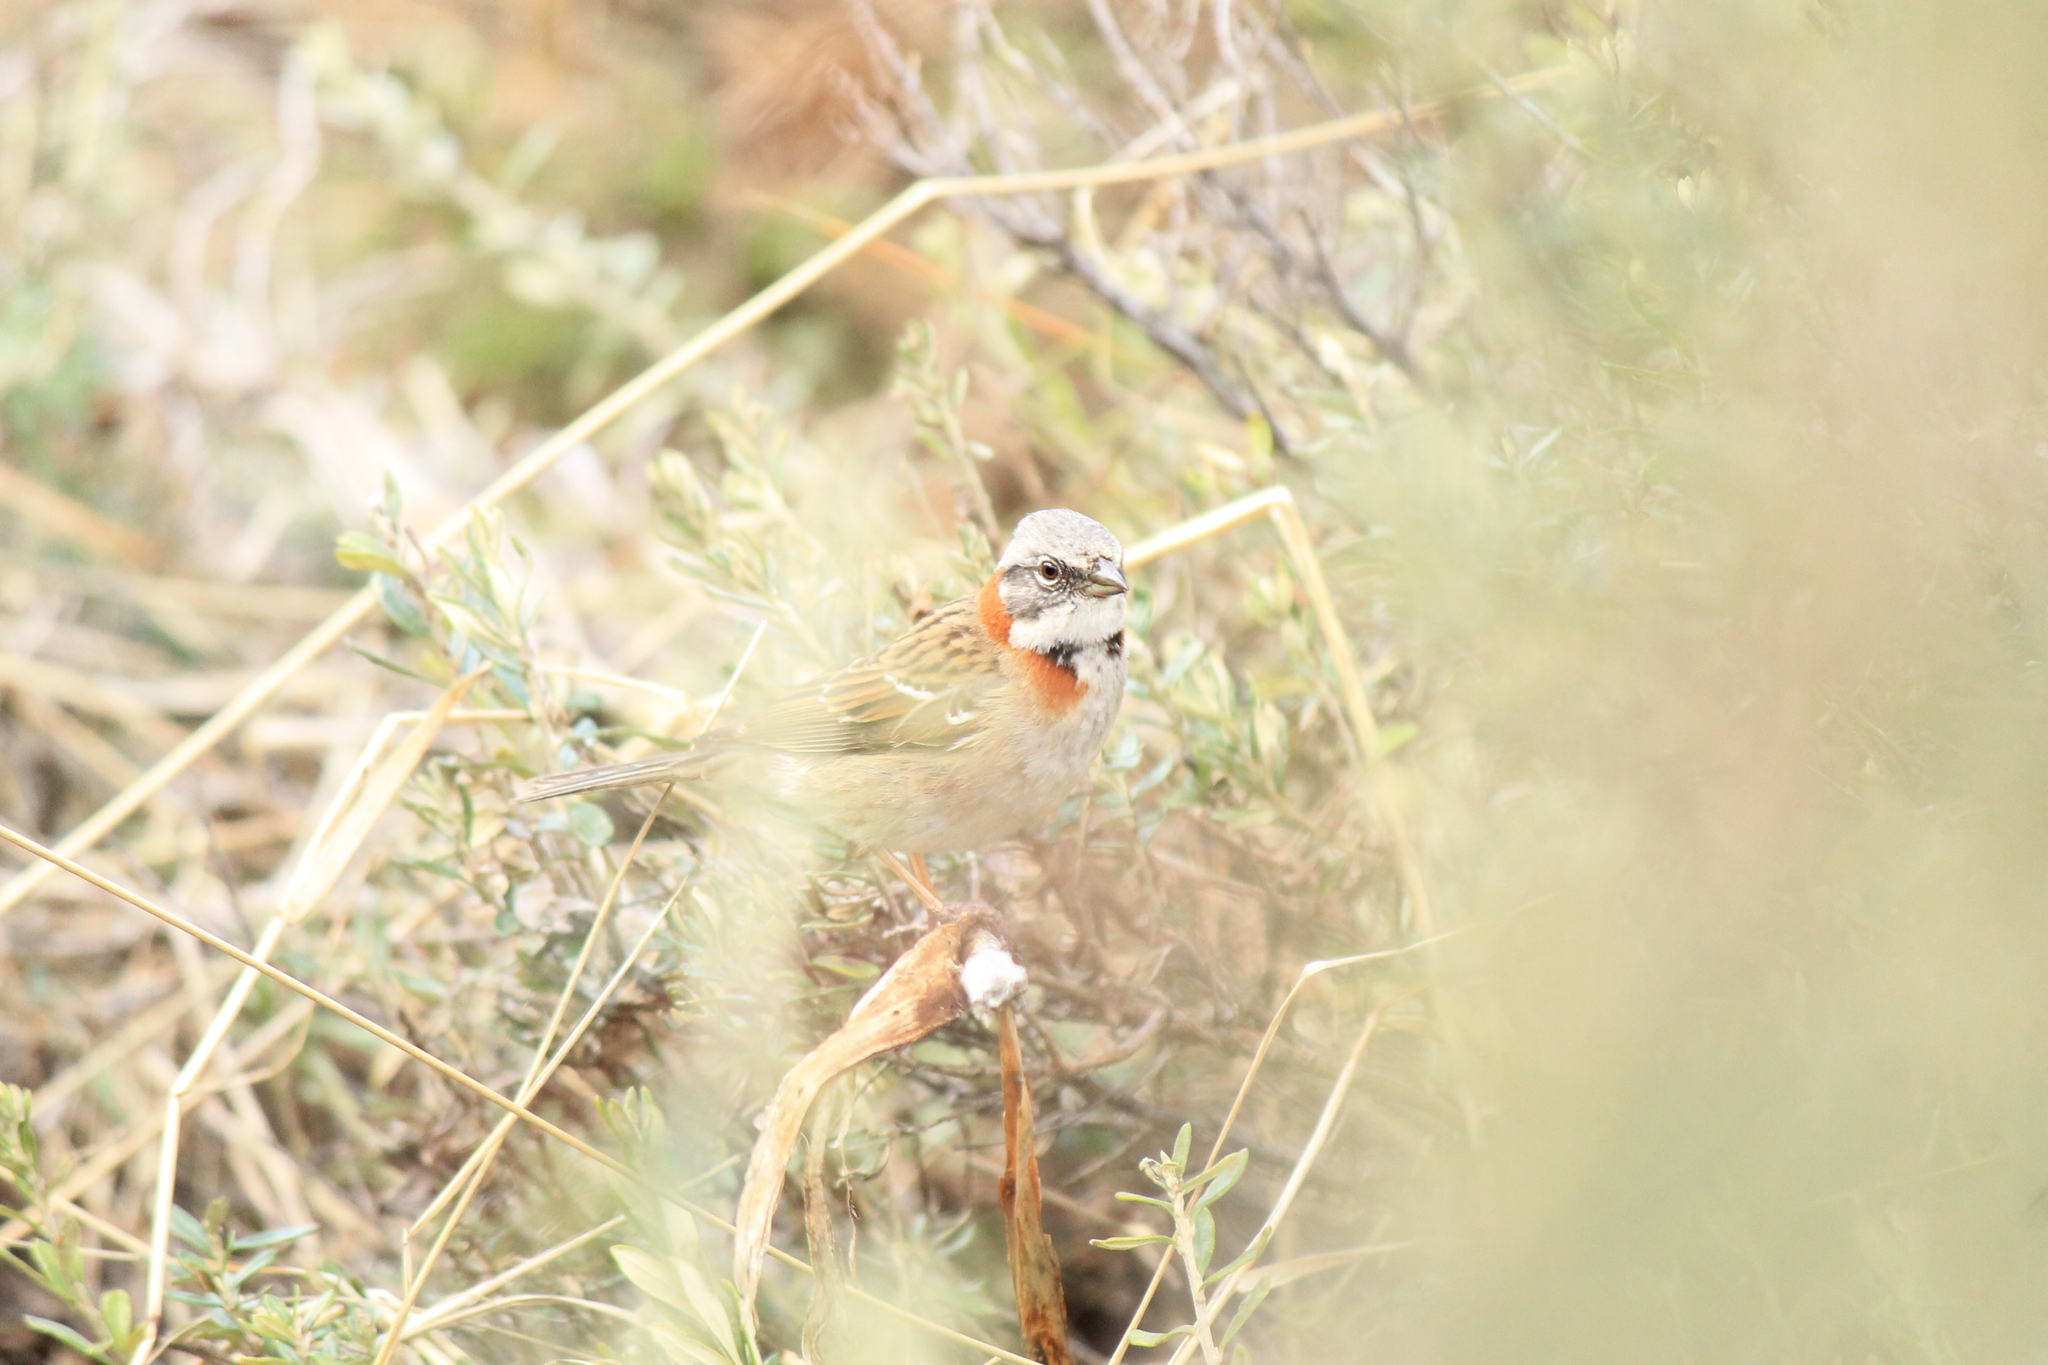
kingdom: Animalia
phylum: Chordata
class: Aves
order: Passeriformes
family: Passerellidae
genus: Zonotrichia
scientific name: Zonotrichia capensis
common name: Rufous-collared sparrow
